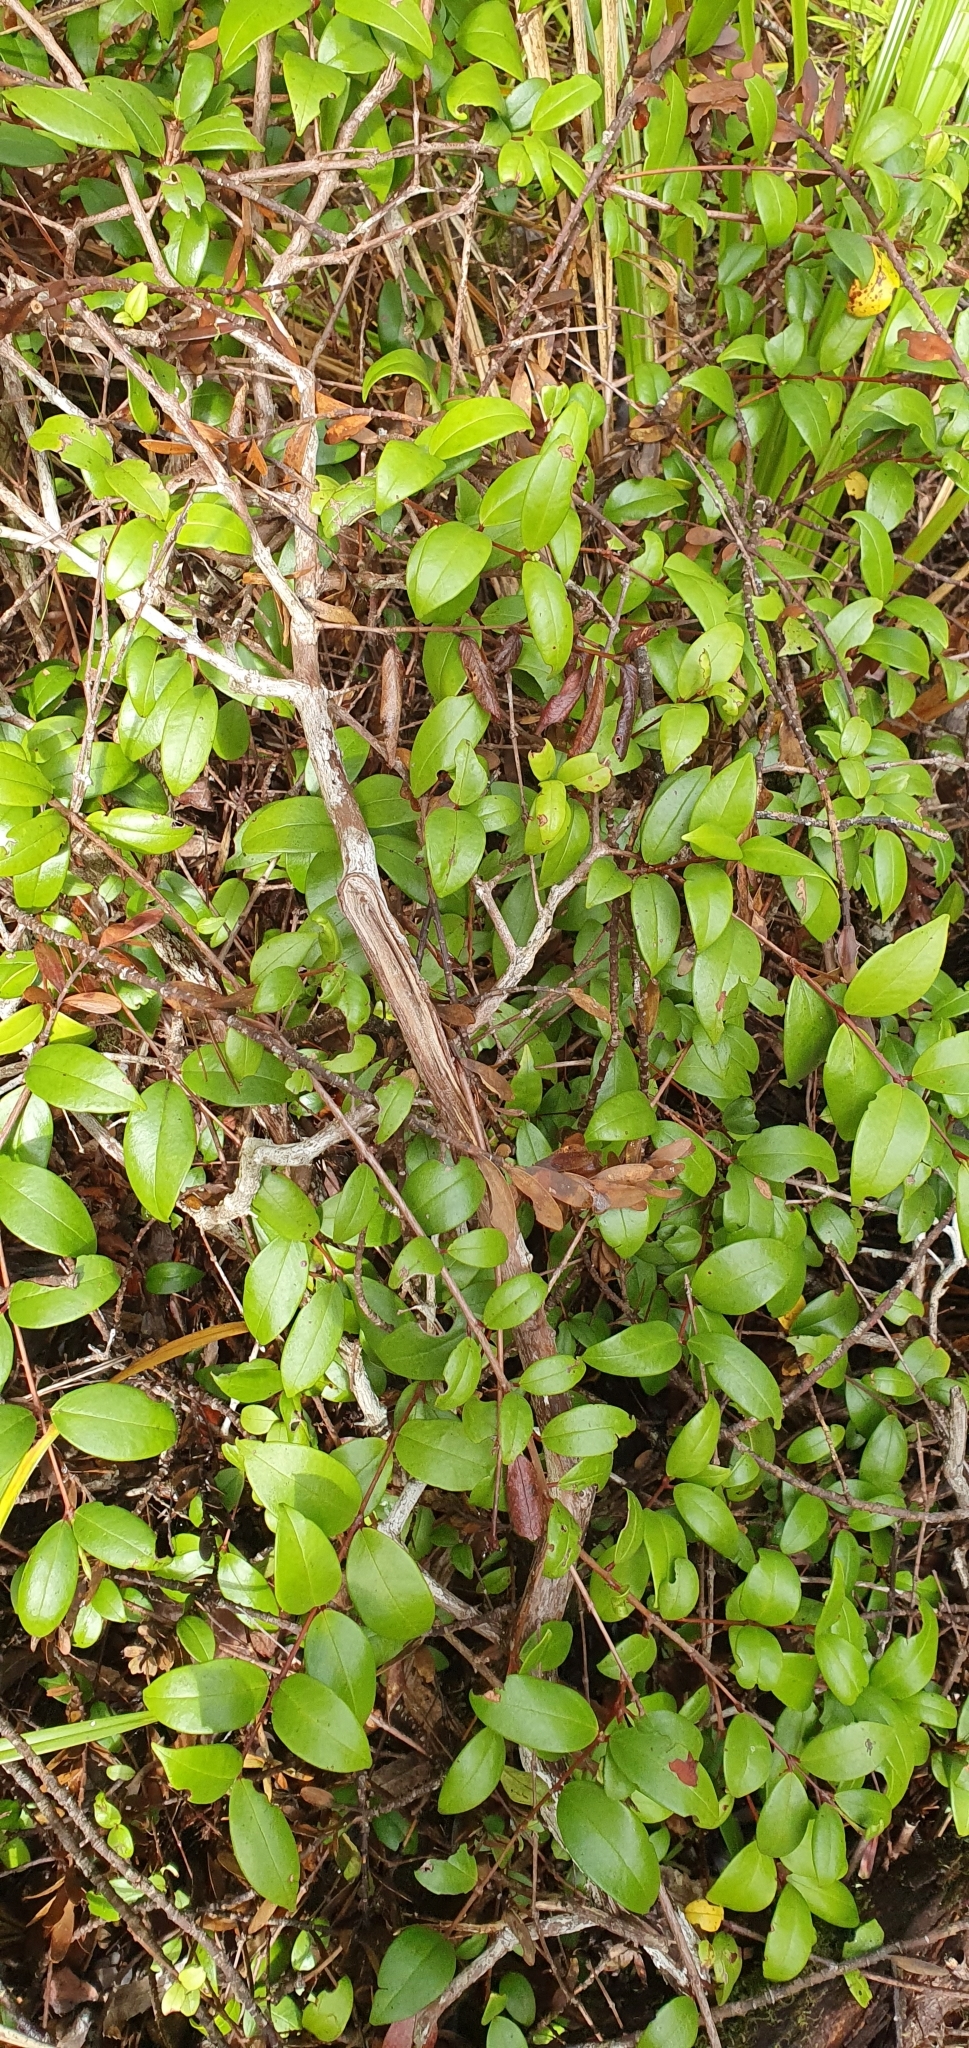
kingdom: Plantae
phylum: Tracheophyta
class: Magnoliopsida
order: Myrtales
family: Myrtaceae
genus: Metrosideros
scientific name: Metrosideros albiflora
